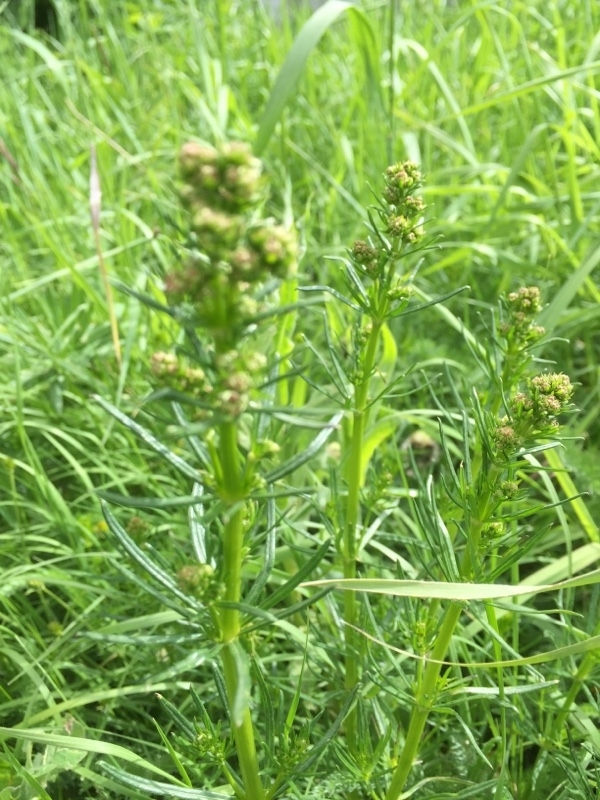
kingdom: Plantae
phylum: Tracheophyta
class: Magnoliopsida
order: Gentianales
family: Rubiaceae
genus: Galium
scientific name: Galium mollugo
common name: Hedge bedstraw
